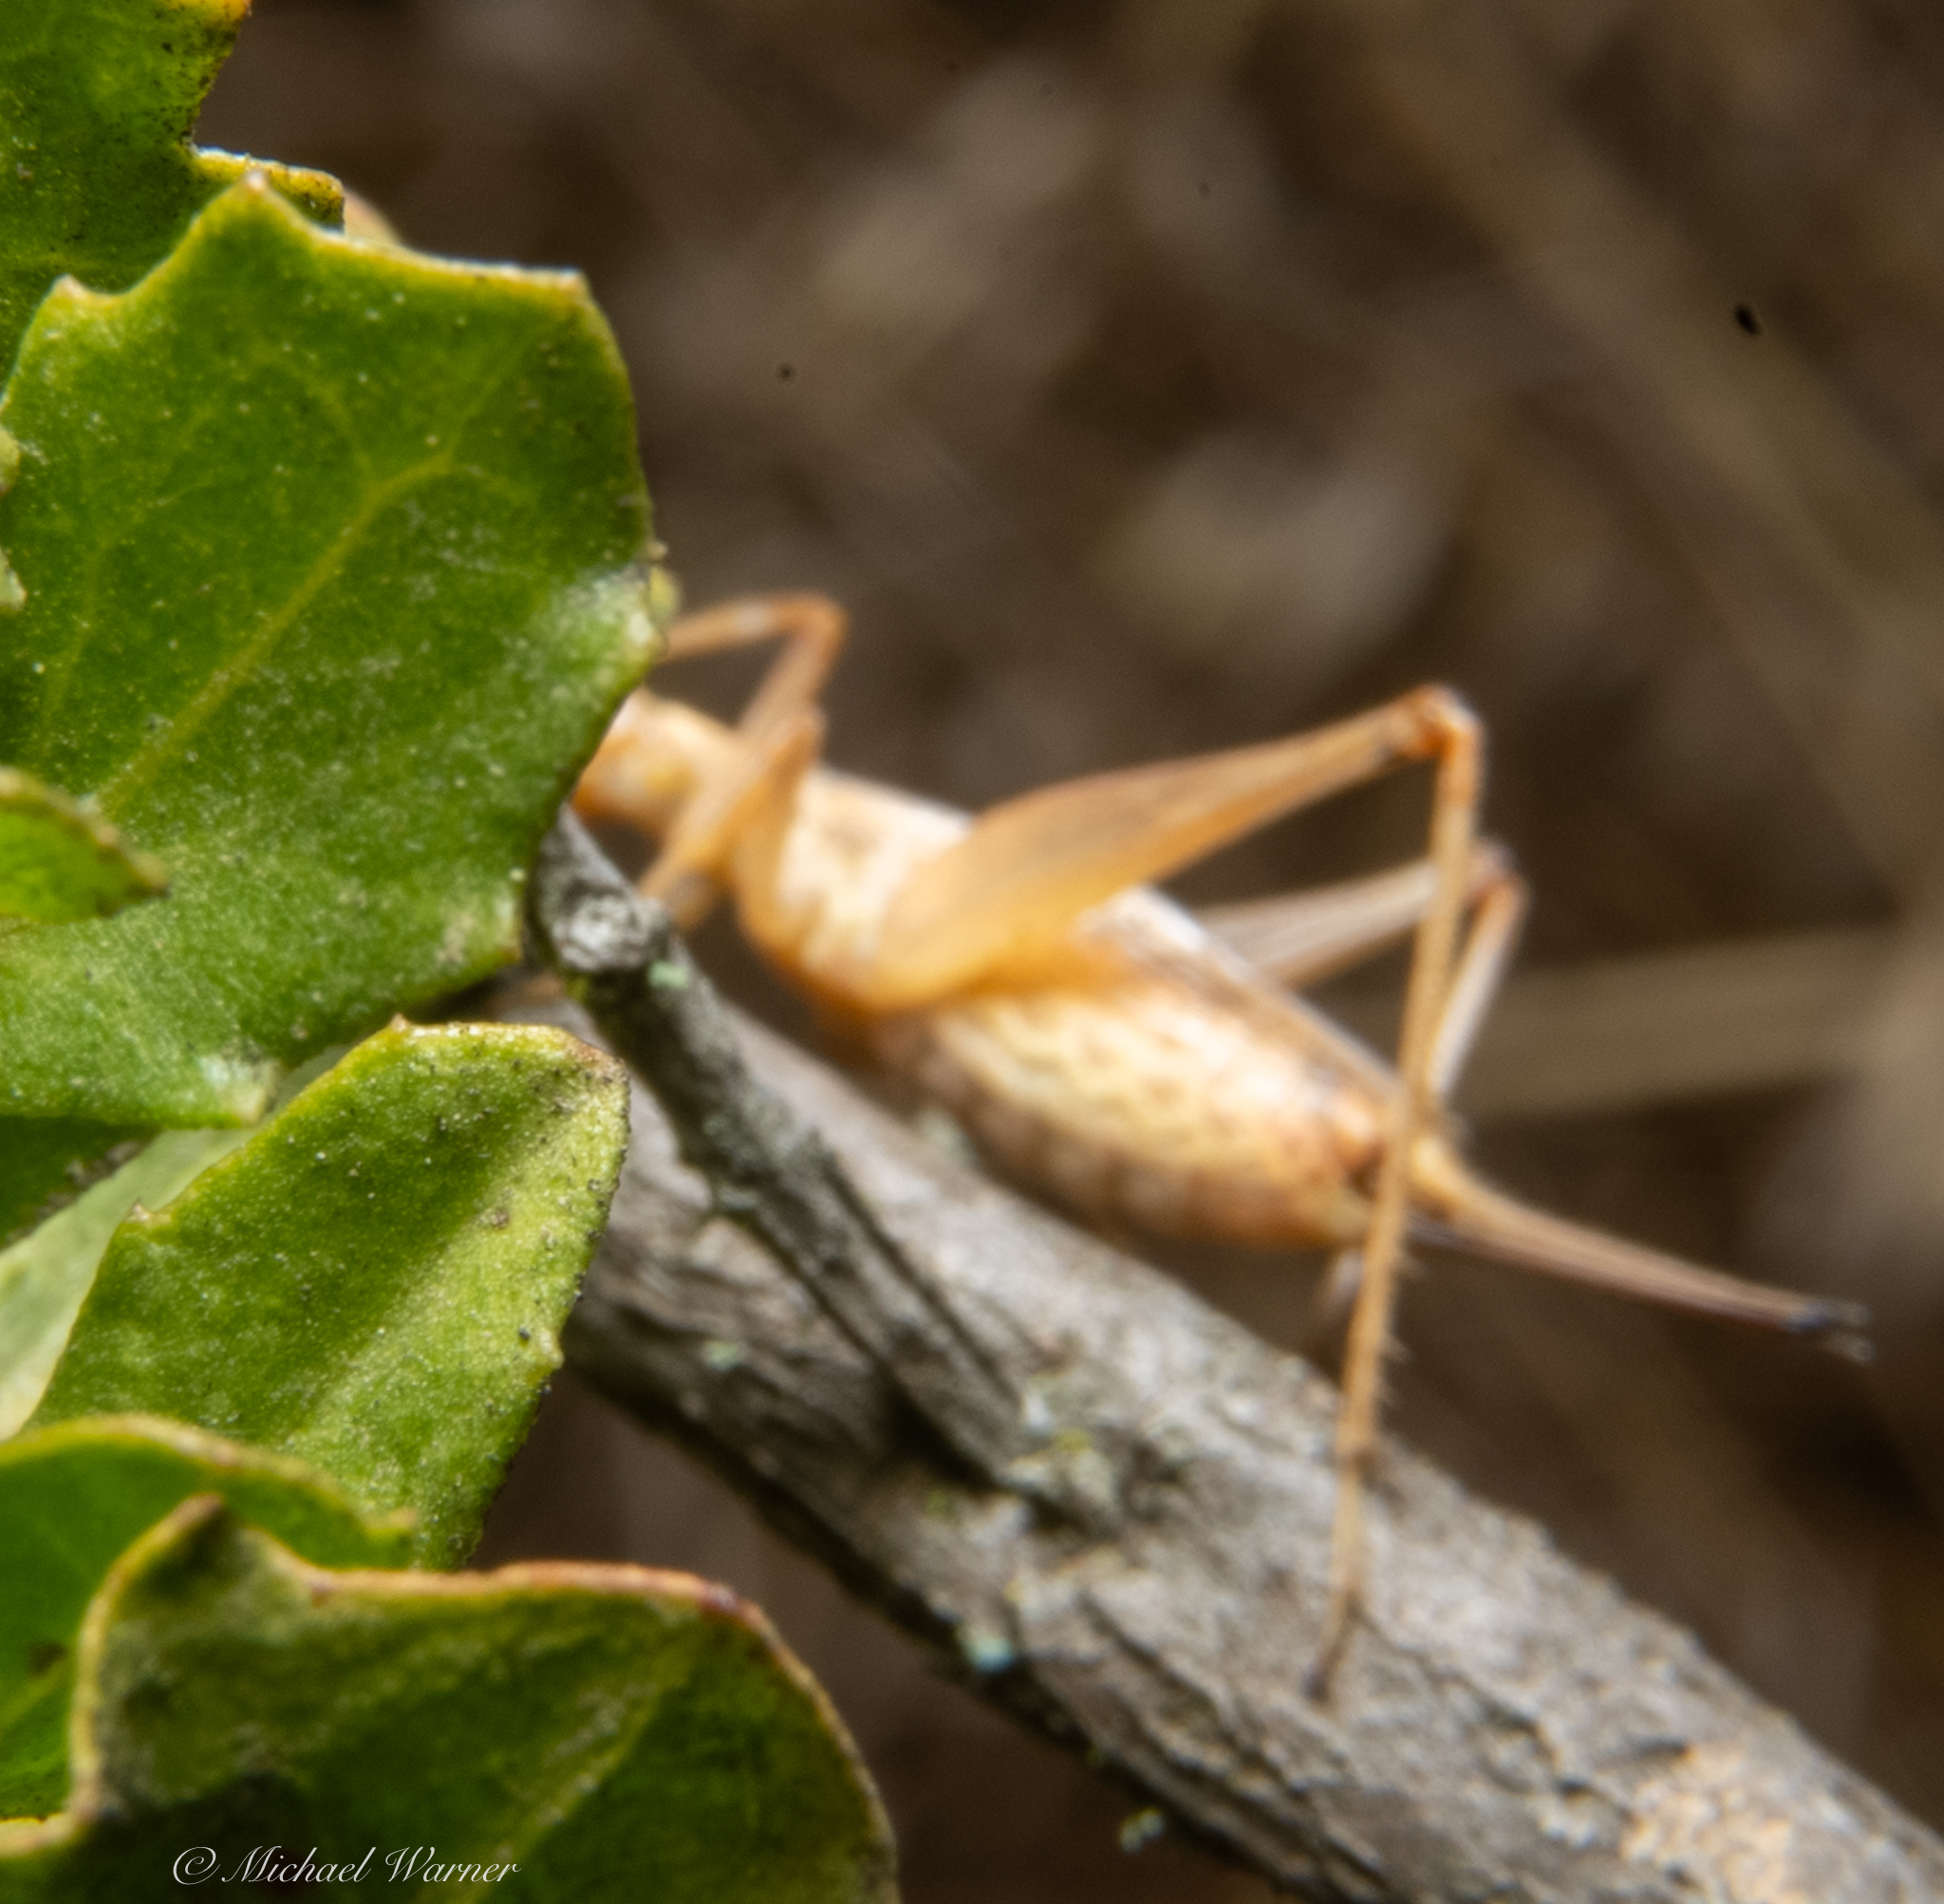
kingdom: Animalia
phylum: Arthropoda
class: Insecta
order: Orthoptera
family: Gryllidae
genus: Oecanthus
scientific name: Oecanthus californicus
